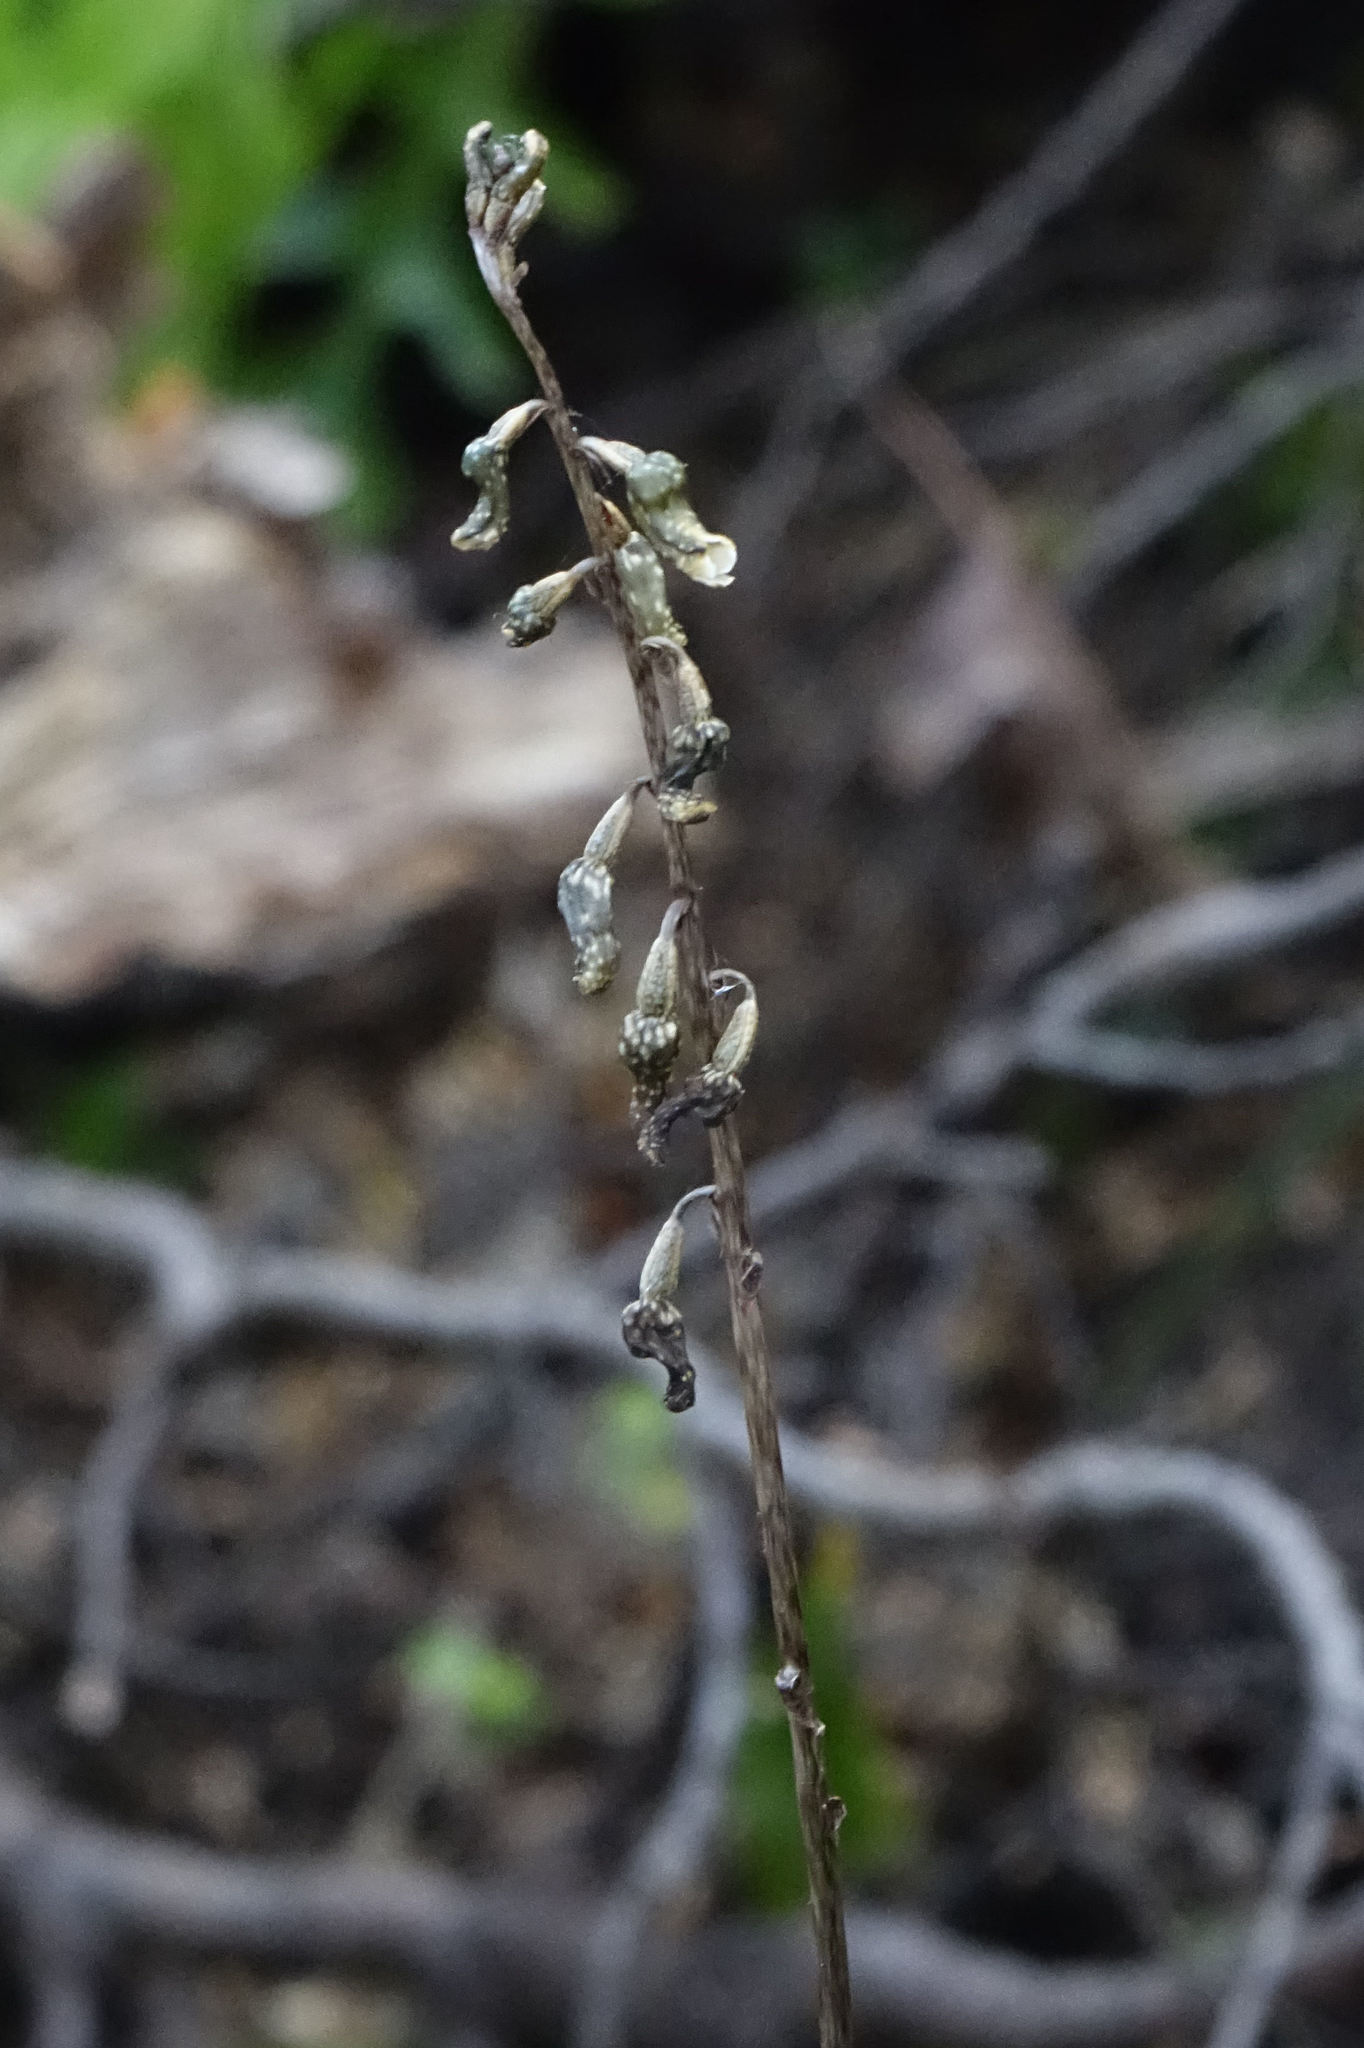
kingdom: Plantae
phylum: Tracheophyta
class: Liliopsida
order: Asparagales
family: Orchidaceae
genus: Gastrodia
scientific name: Gastrodia cunninghamii
